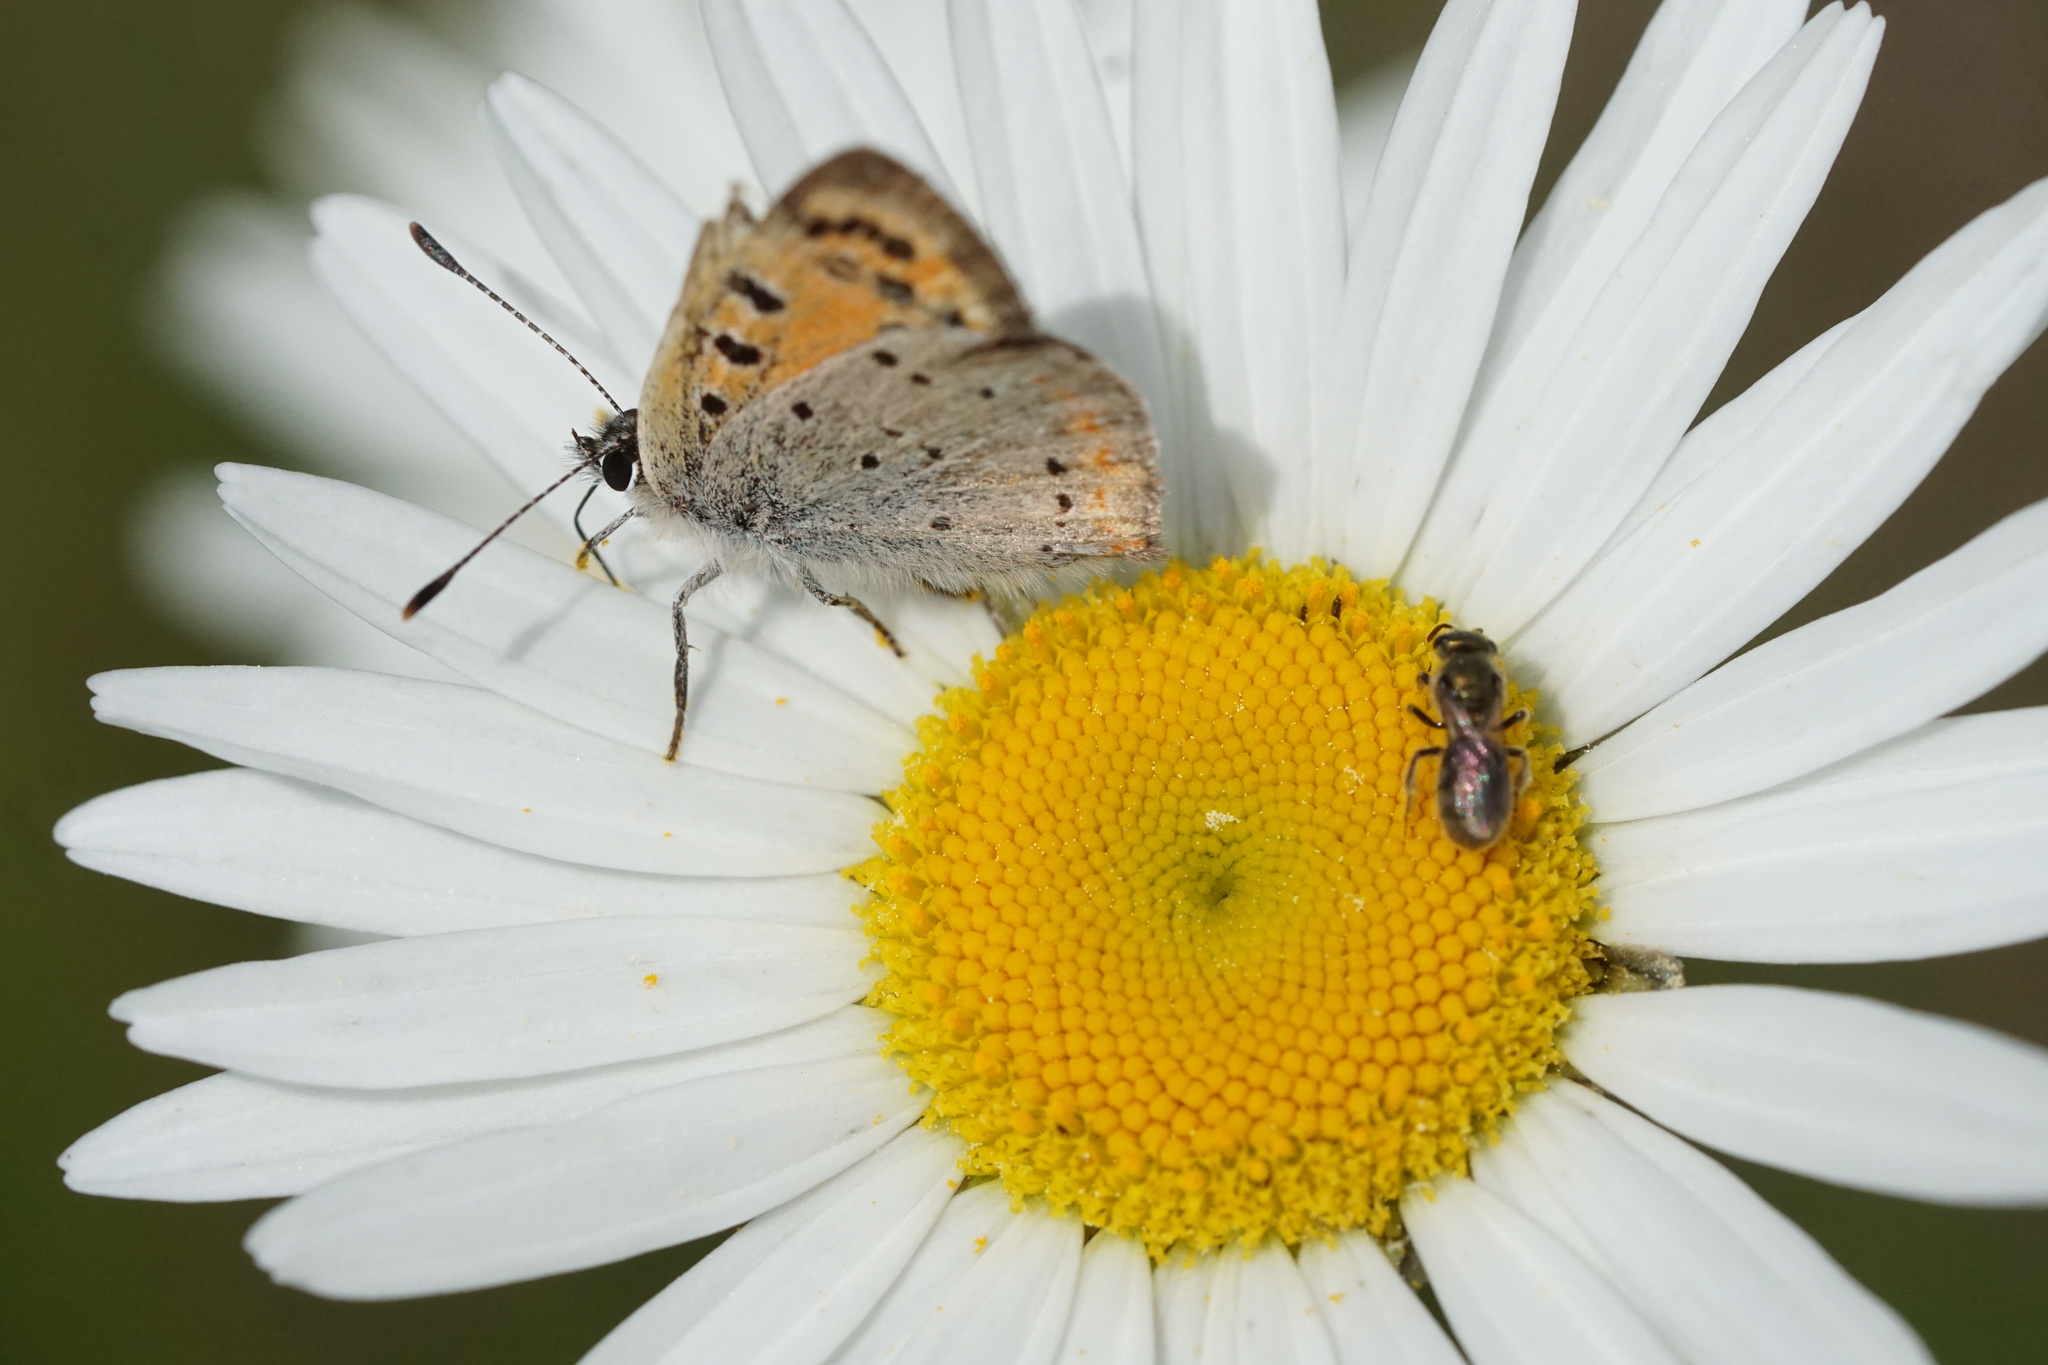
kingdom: Animalia
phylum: Arthropoda
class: Insecta
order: Lepidoptera
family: Lycaenidae
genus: Lycaena
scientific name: Lycaena hypophlaeas
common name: American copper
